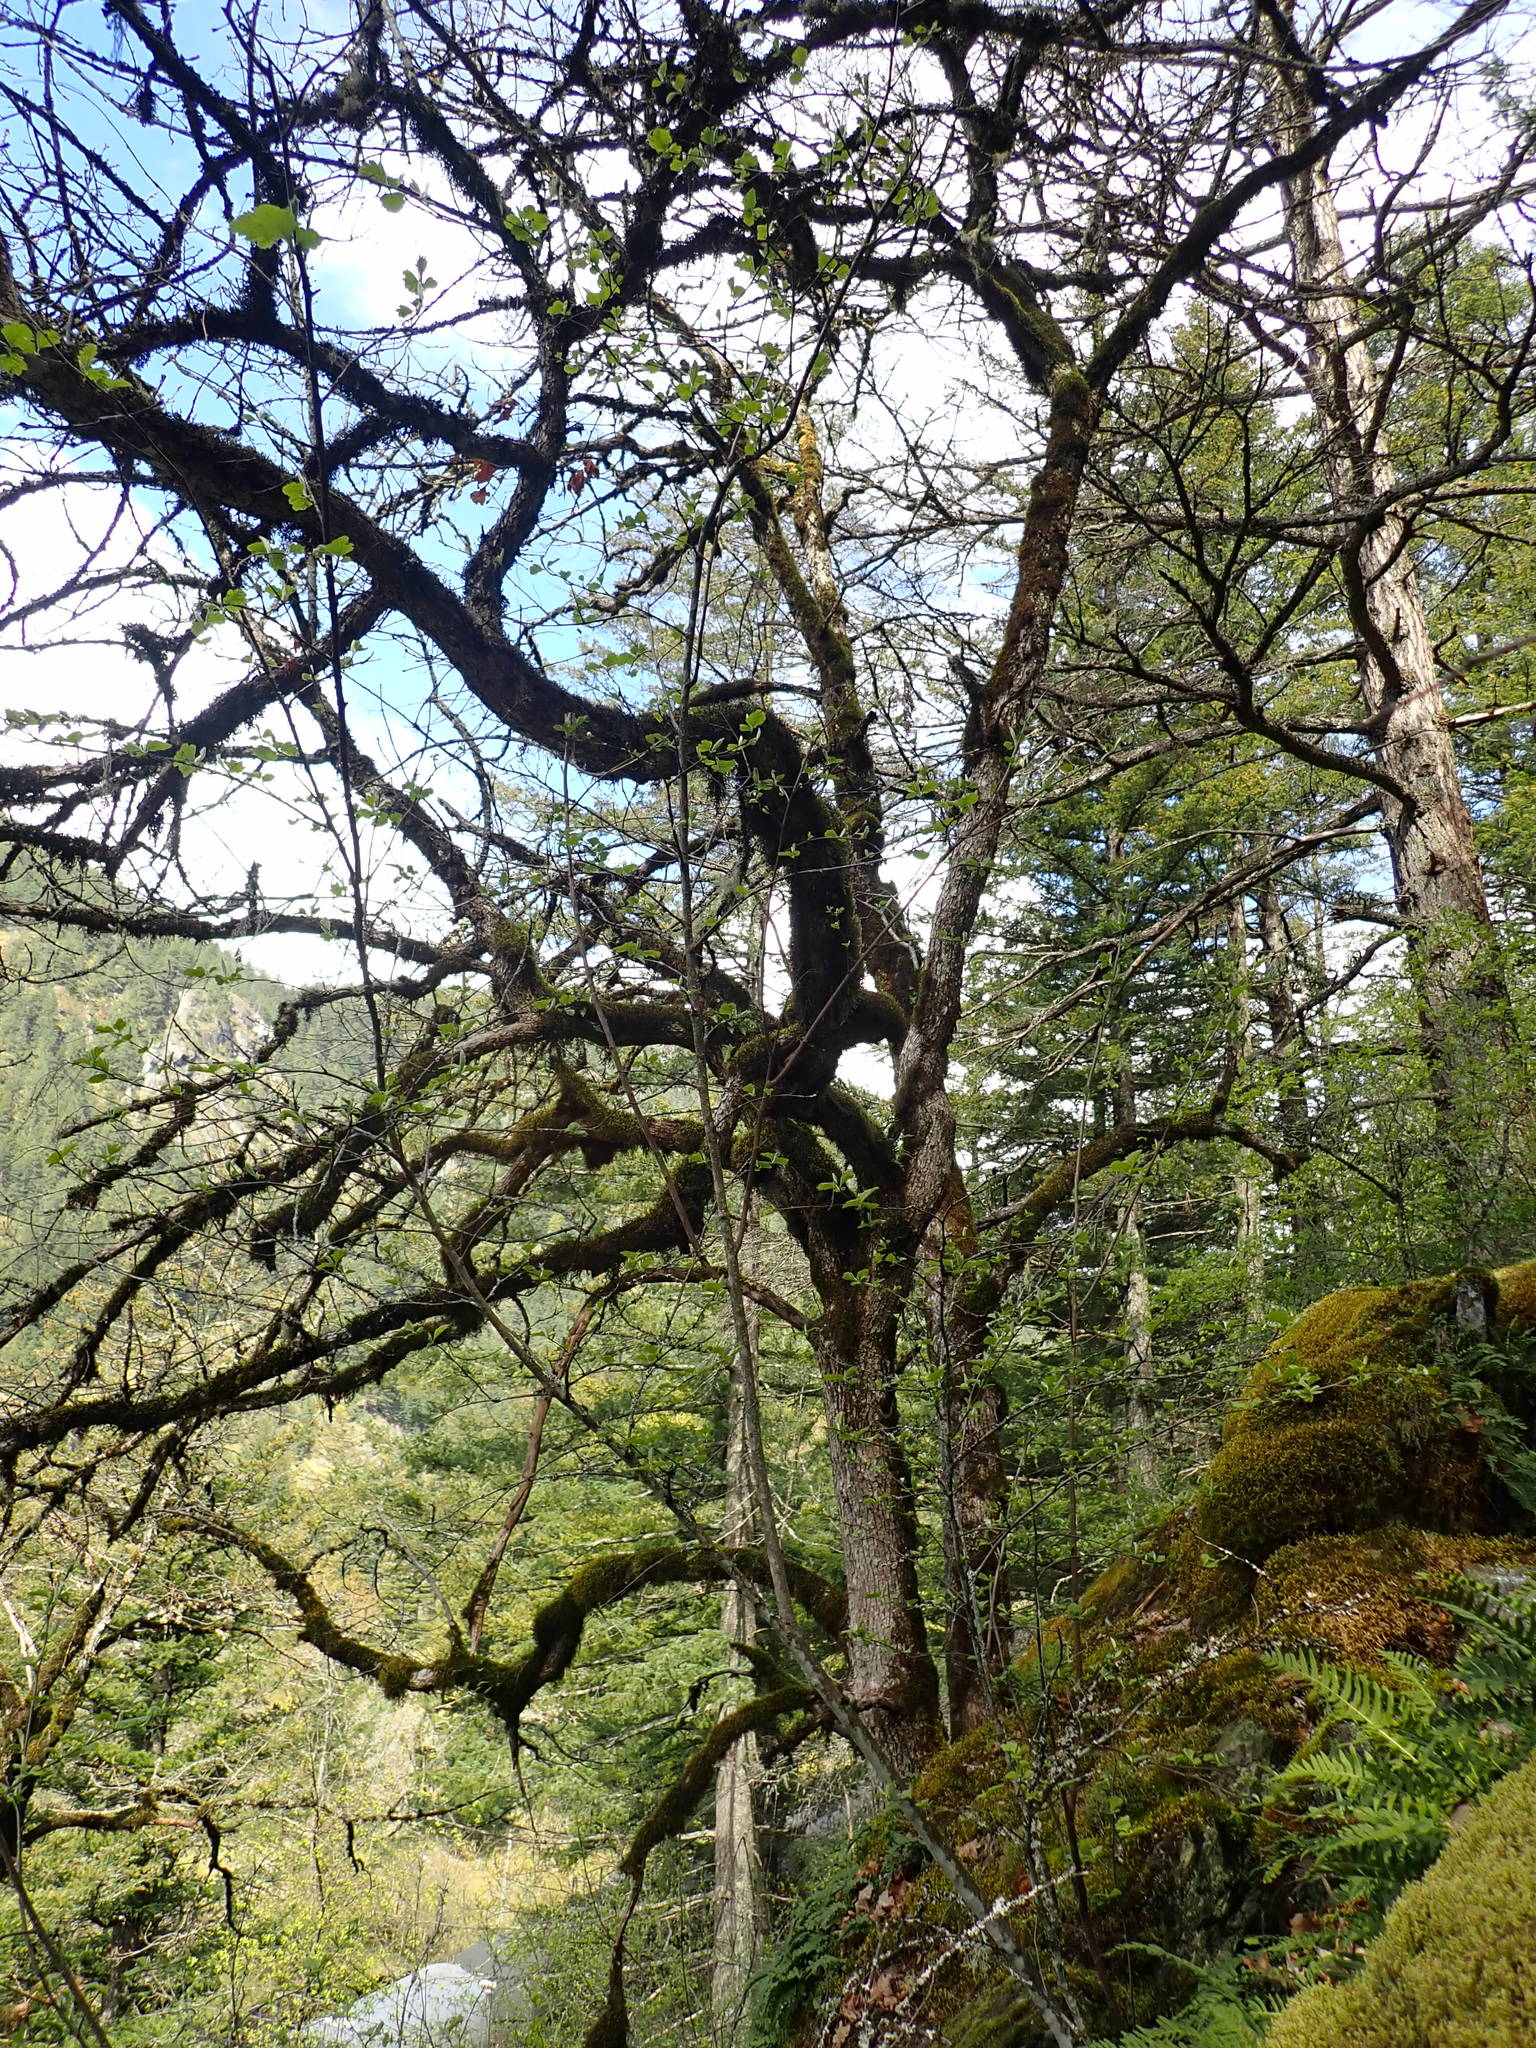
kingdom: Plantae
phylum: Tracheophyta
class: Magnoliopsida
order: Fagales
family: Fagaceae
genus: Quercus
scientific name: Quercus garryana
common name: Garry oak
